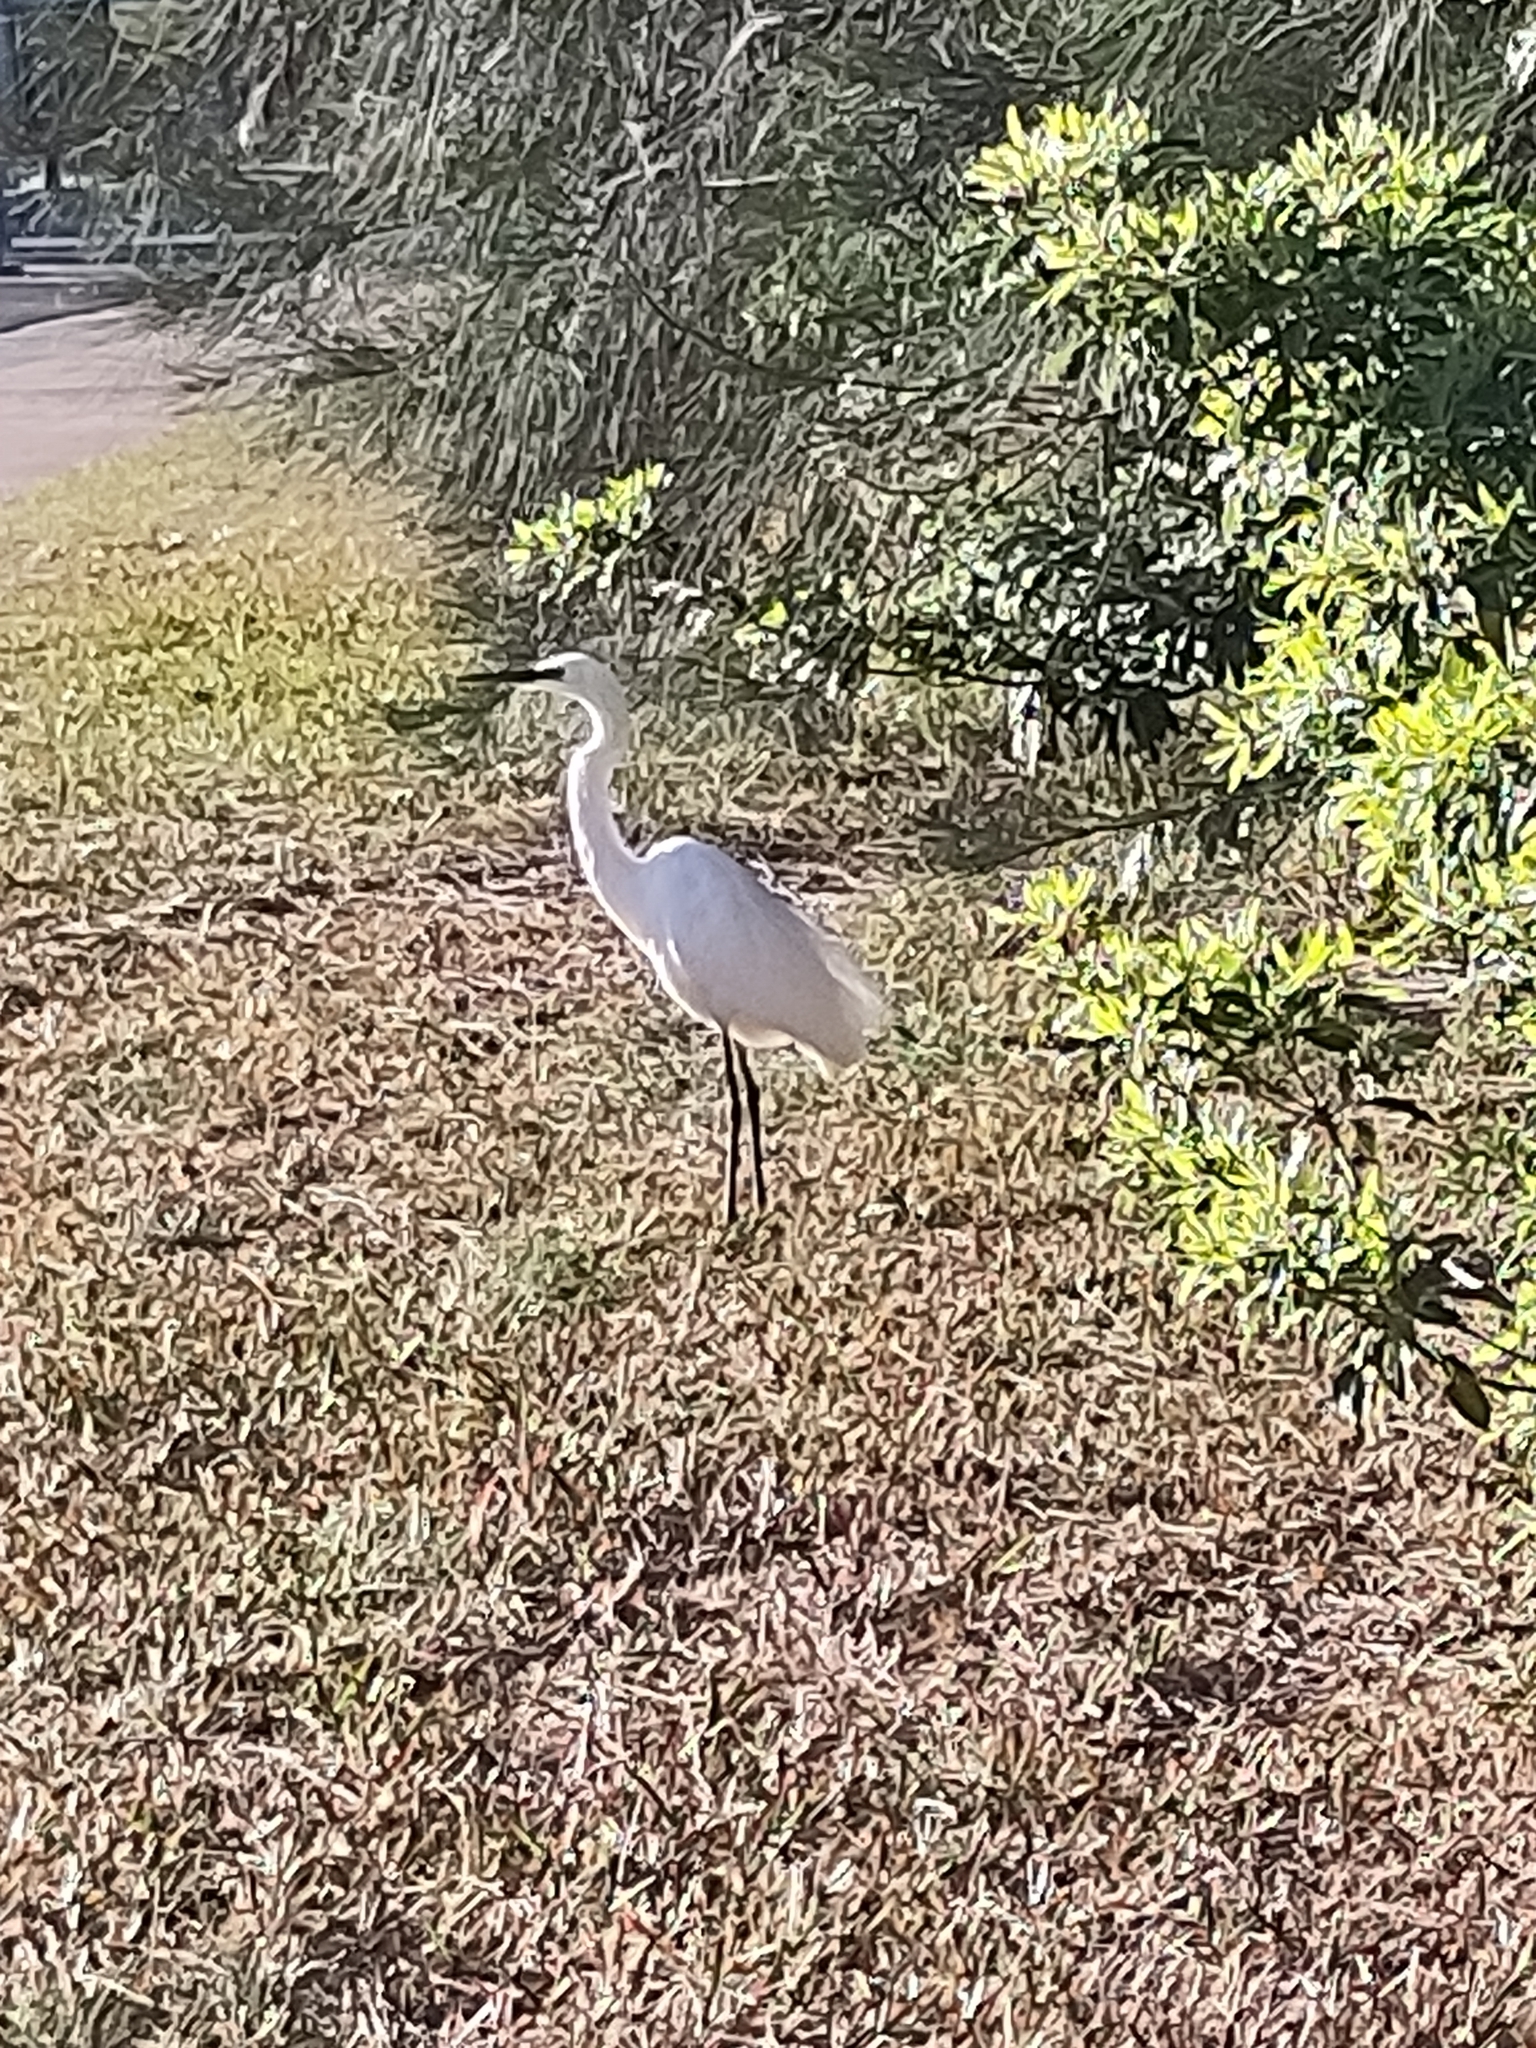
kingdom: Animalia
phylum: Chordata
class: Aves
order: Pelecaniformes
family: Ardeidae
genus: Egretta
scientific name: Egretta garzetta
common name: Little egret
